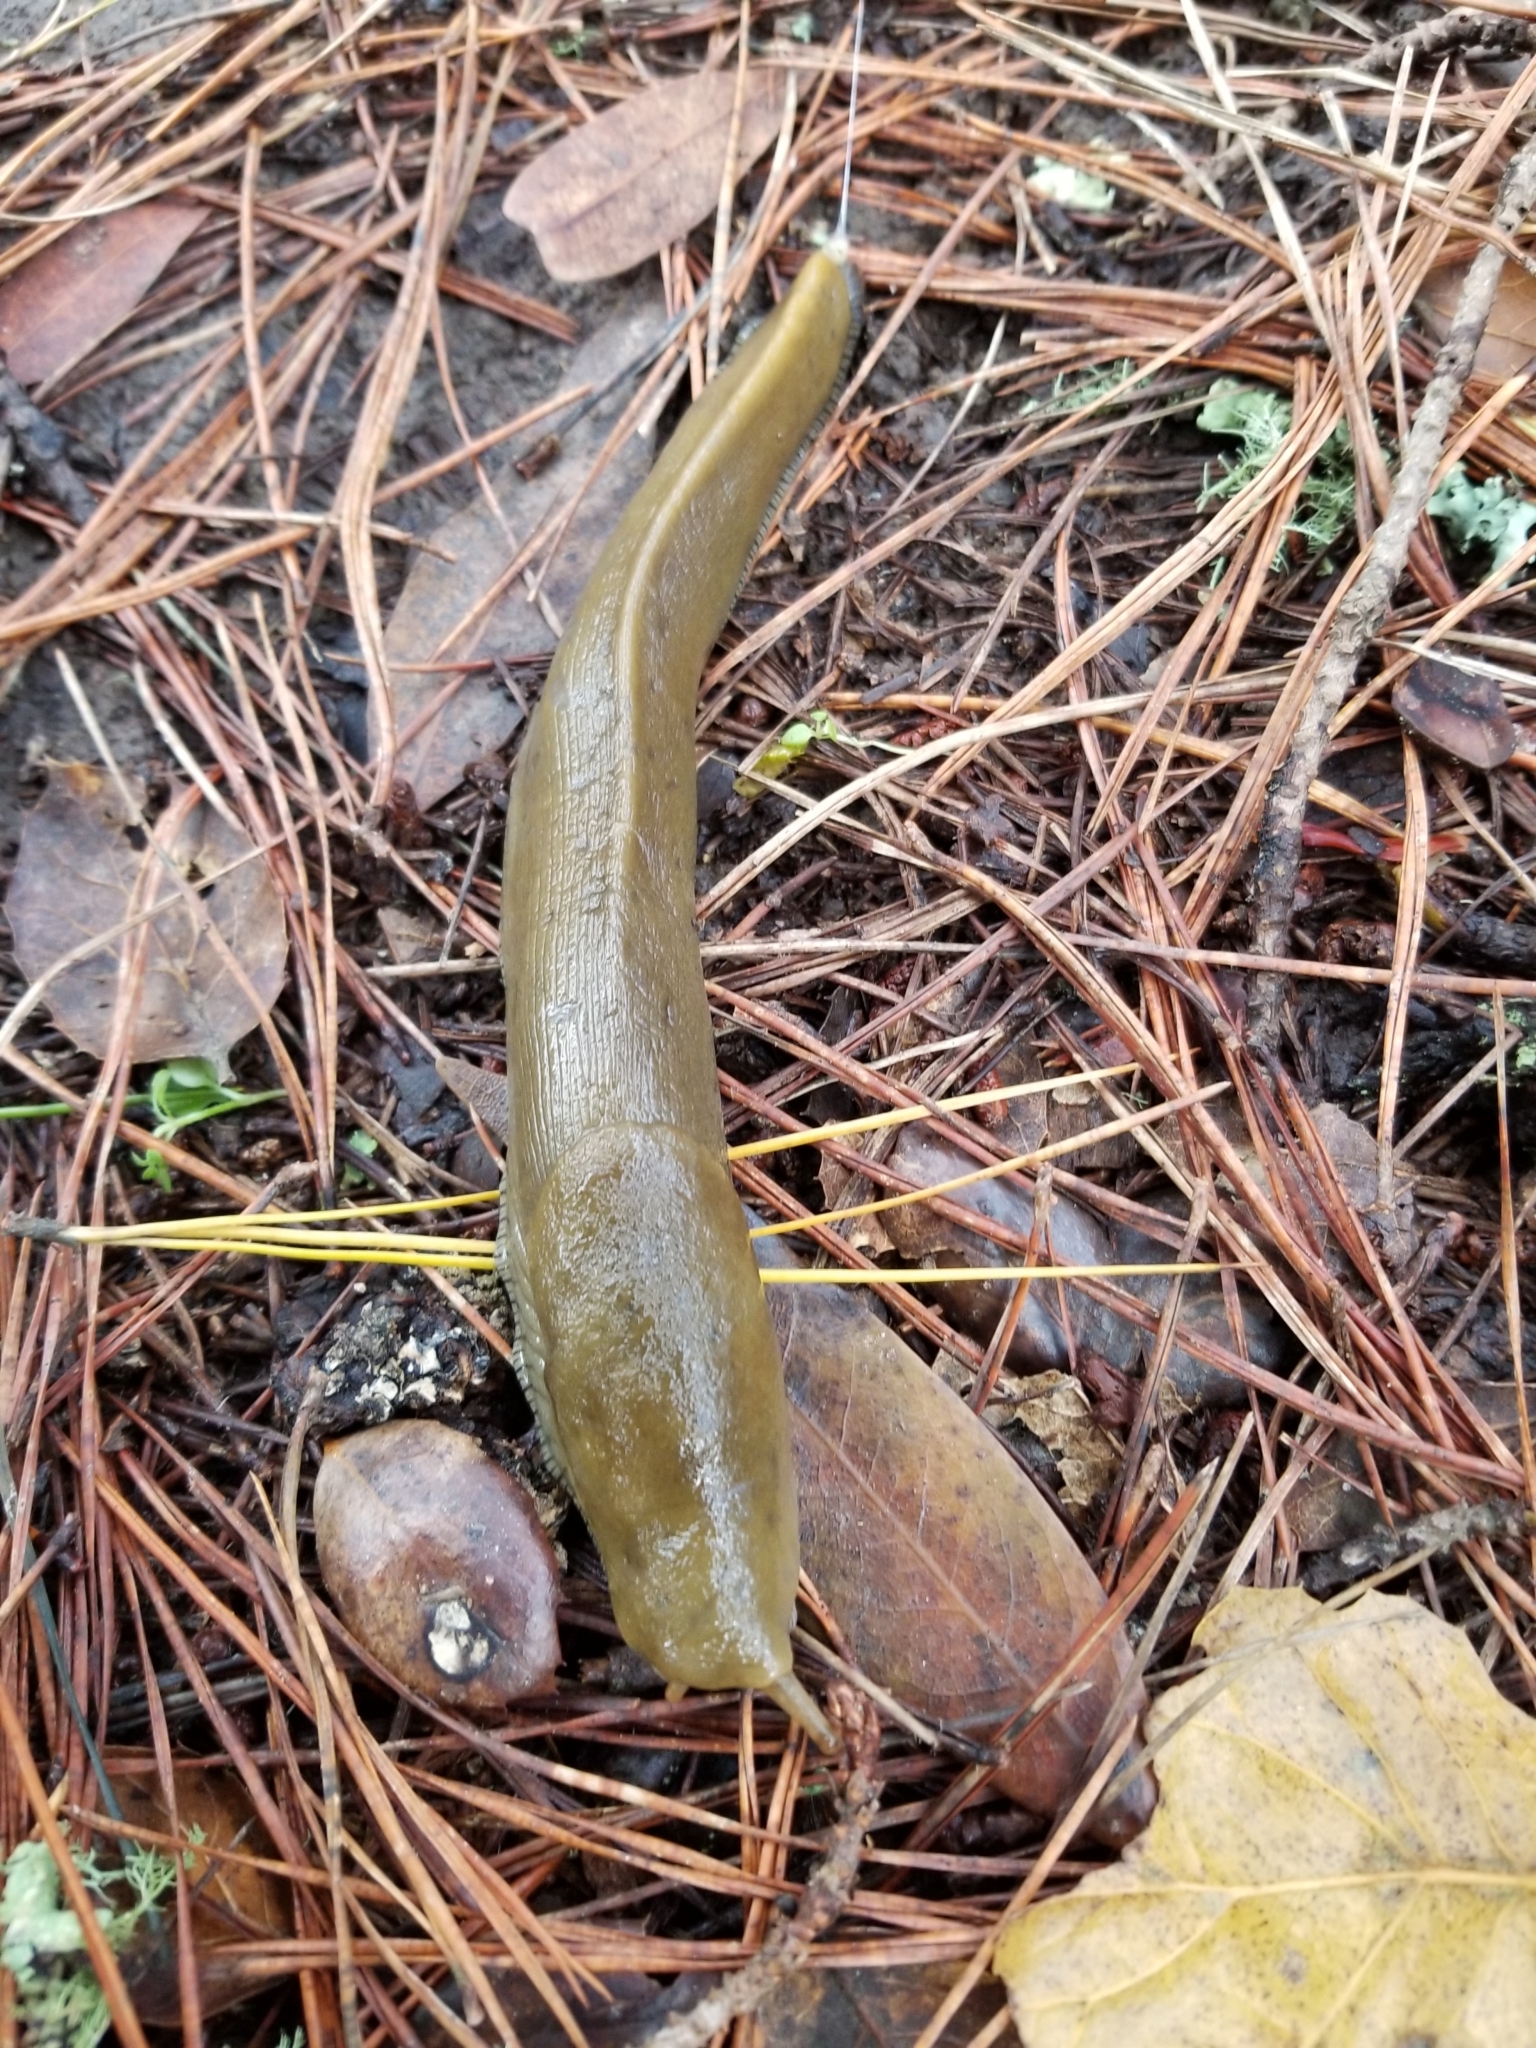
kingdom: Animalia
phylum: Mollusca
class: Gastropoda
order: Stylommatophora
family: Ariolimacidae
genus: Ariolimax
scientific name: Ariolimax buttoni
